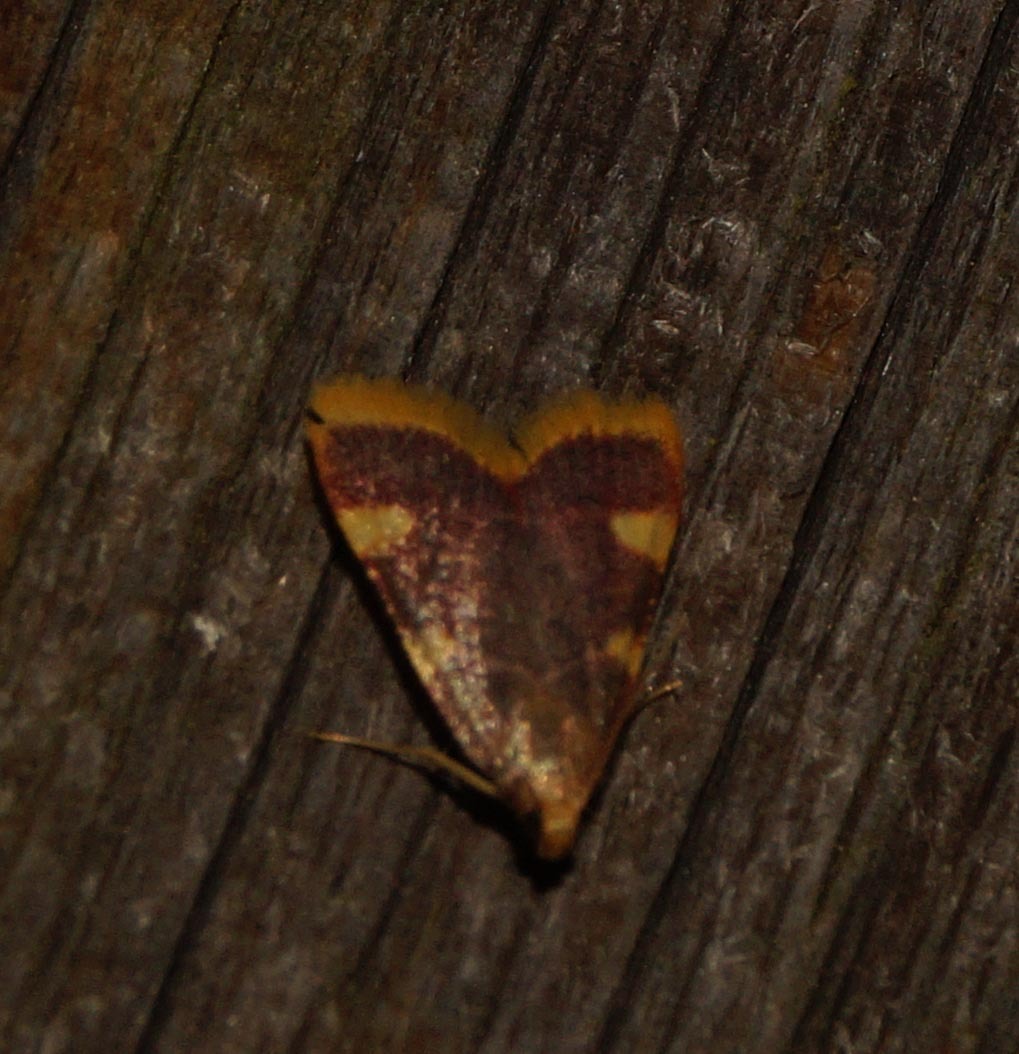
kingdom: Animalia
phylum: Arthropoda
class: Insecta
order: Lepidoptera
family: Pyralidae
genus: Hypsopygia
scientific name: Hypsopygia costalis
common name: Gold triangle
